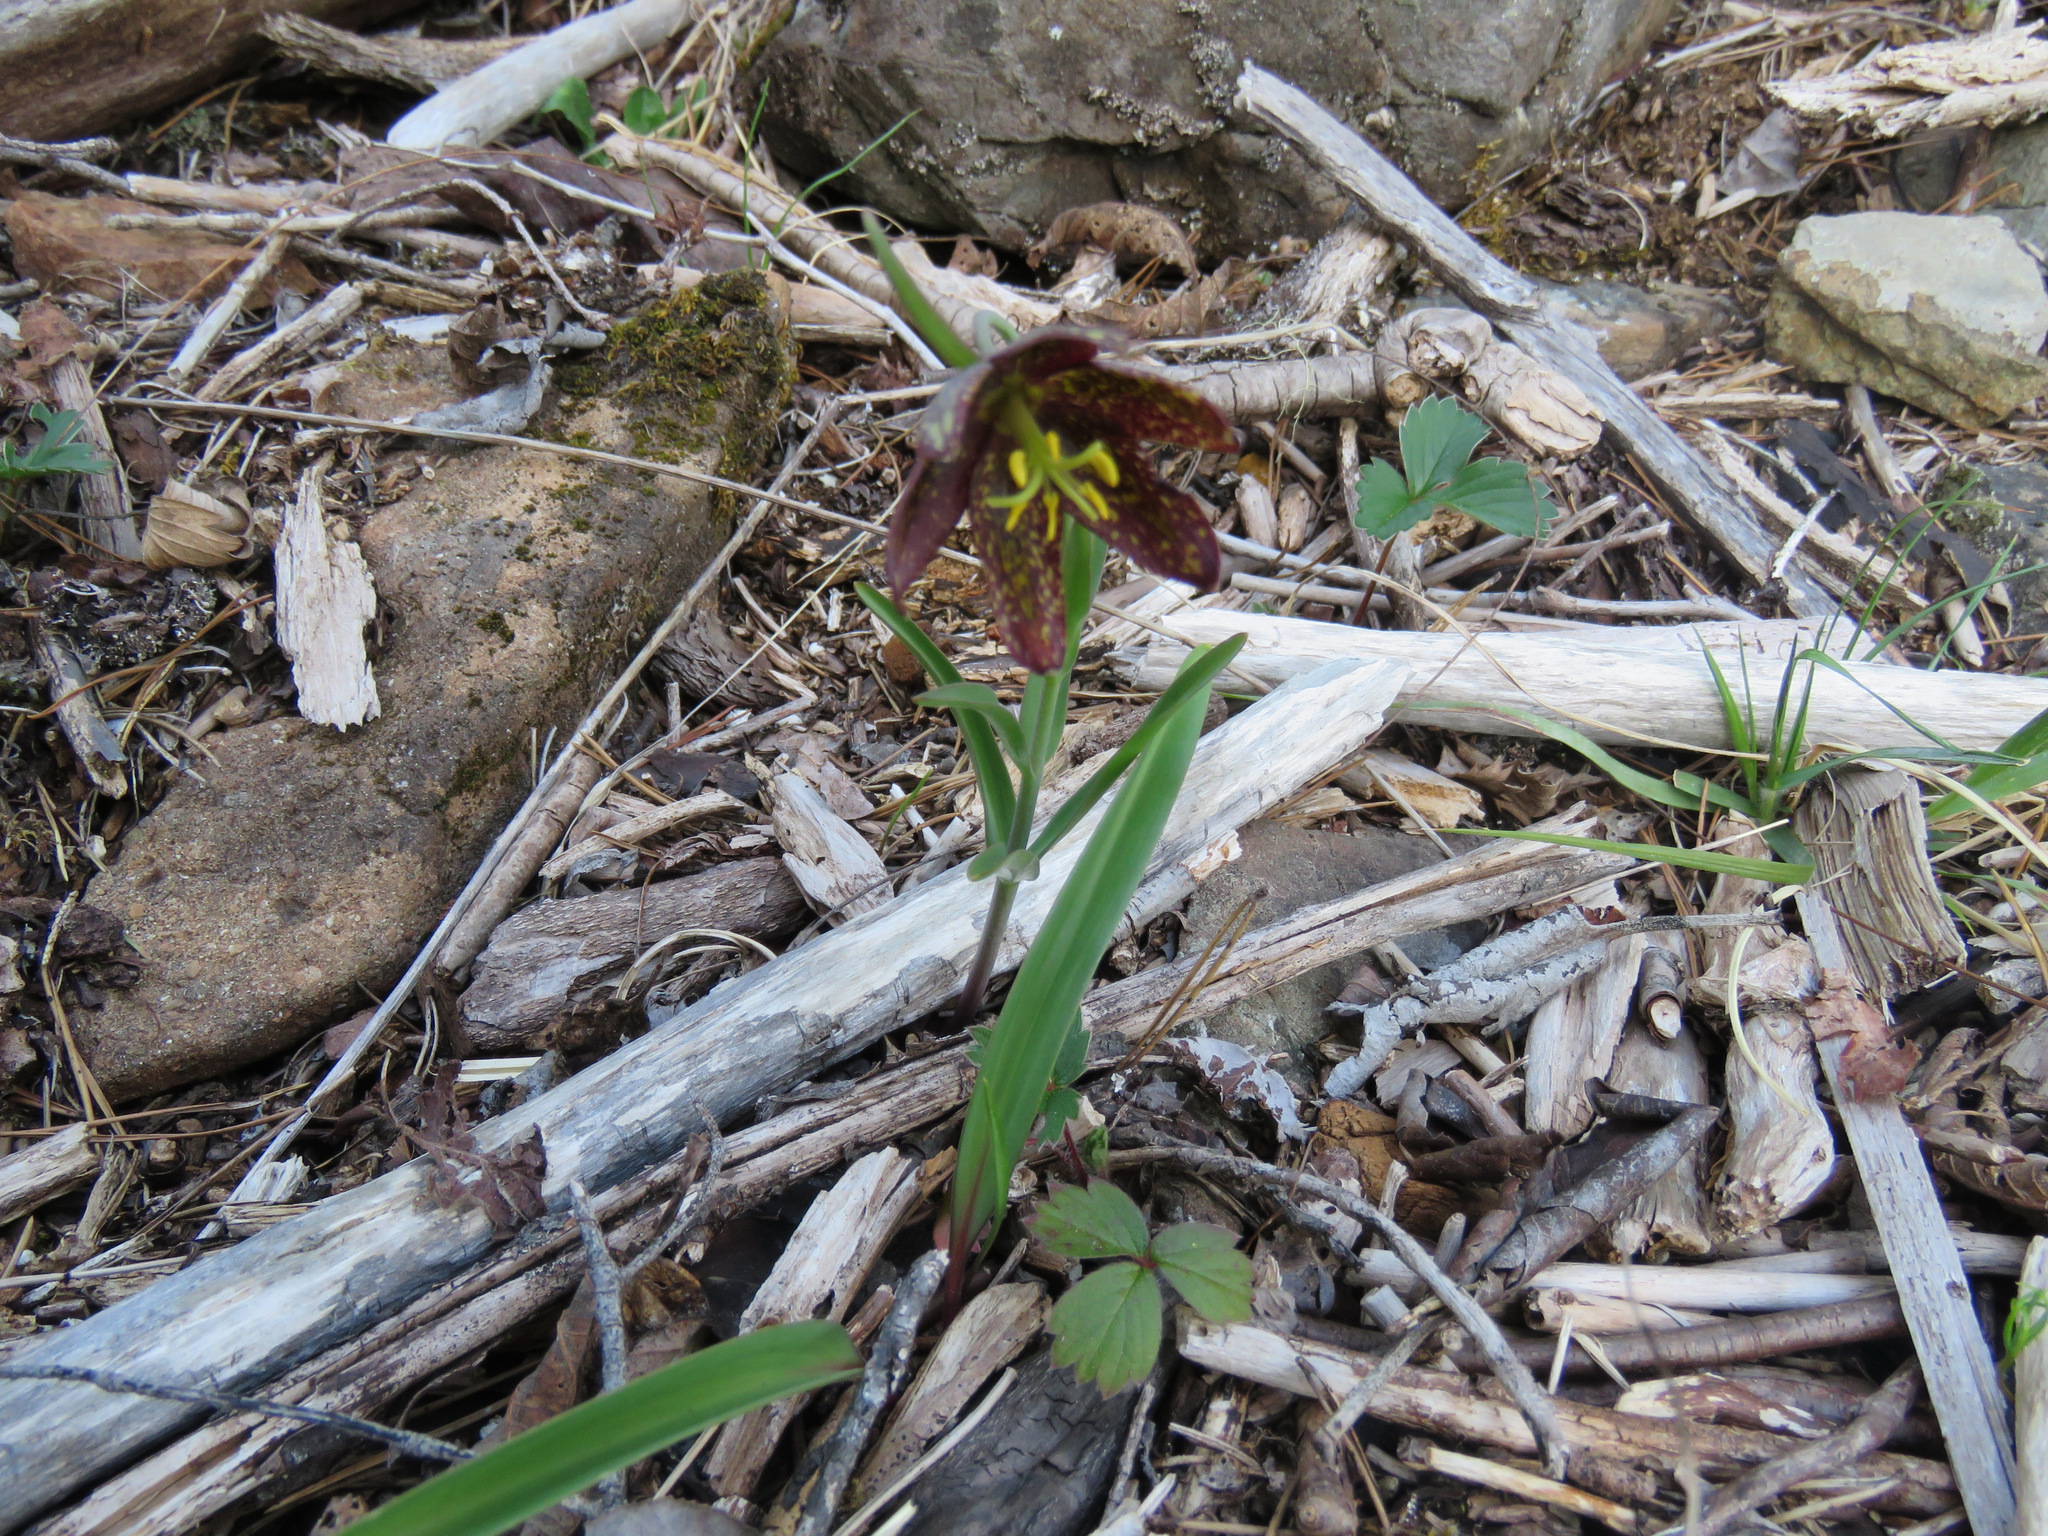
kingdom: Plantae
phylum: Tracheophyta
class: Liliopsida
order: Liliales
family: Liliaceae
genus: Fritillaria
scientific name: Fritillaria affinis
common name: Ojai fritillary
